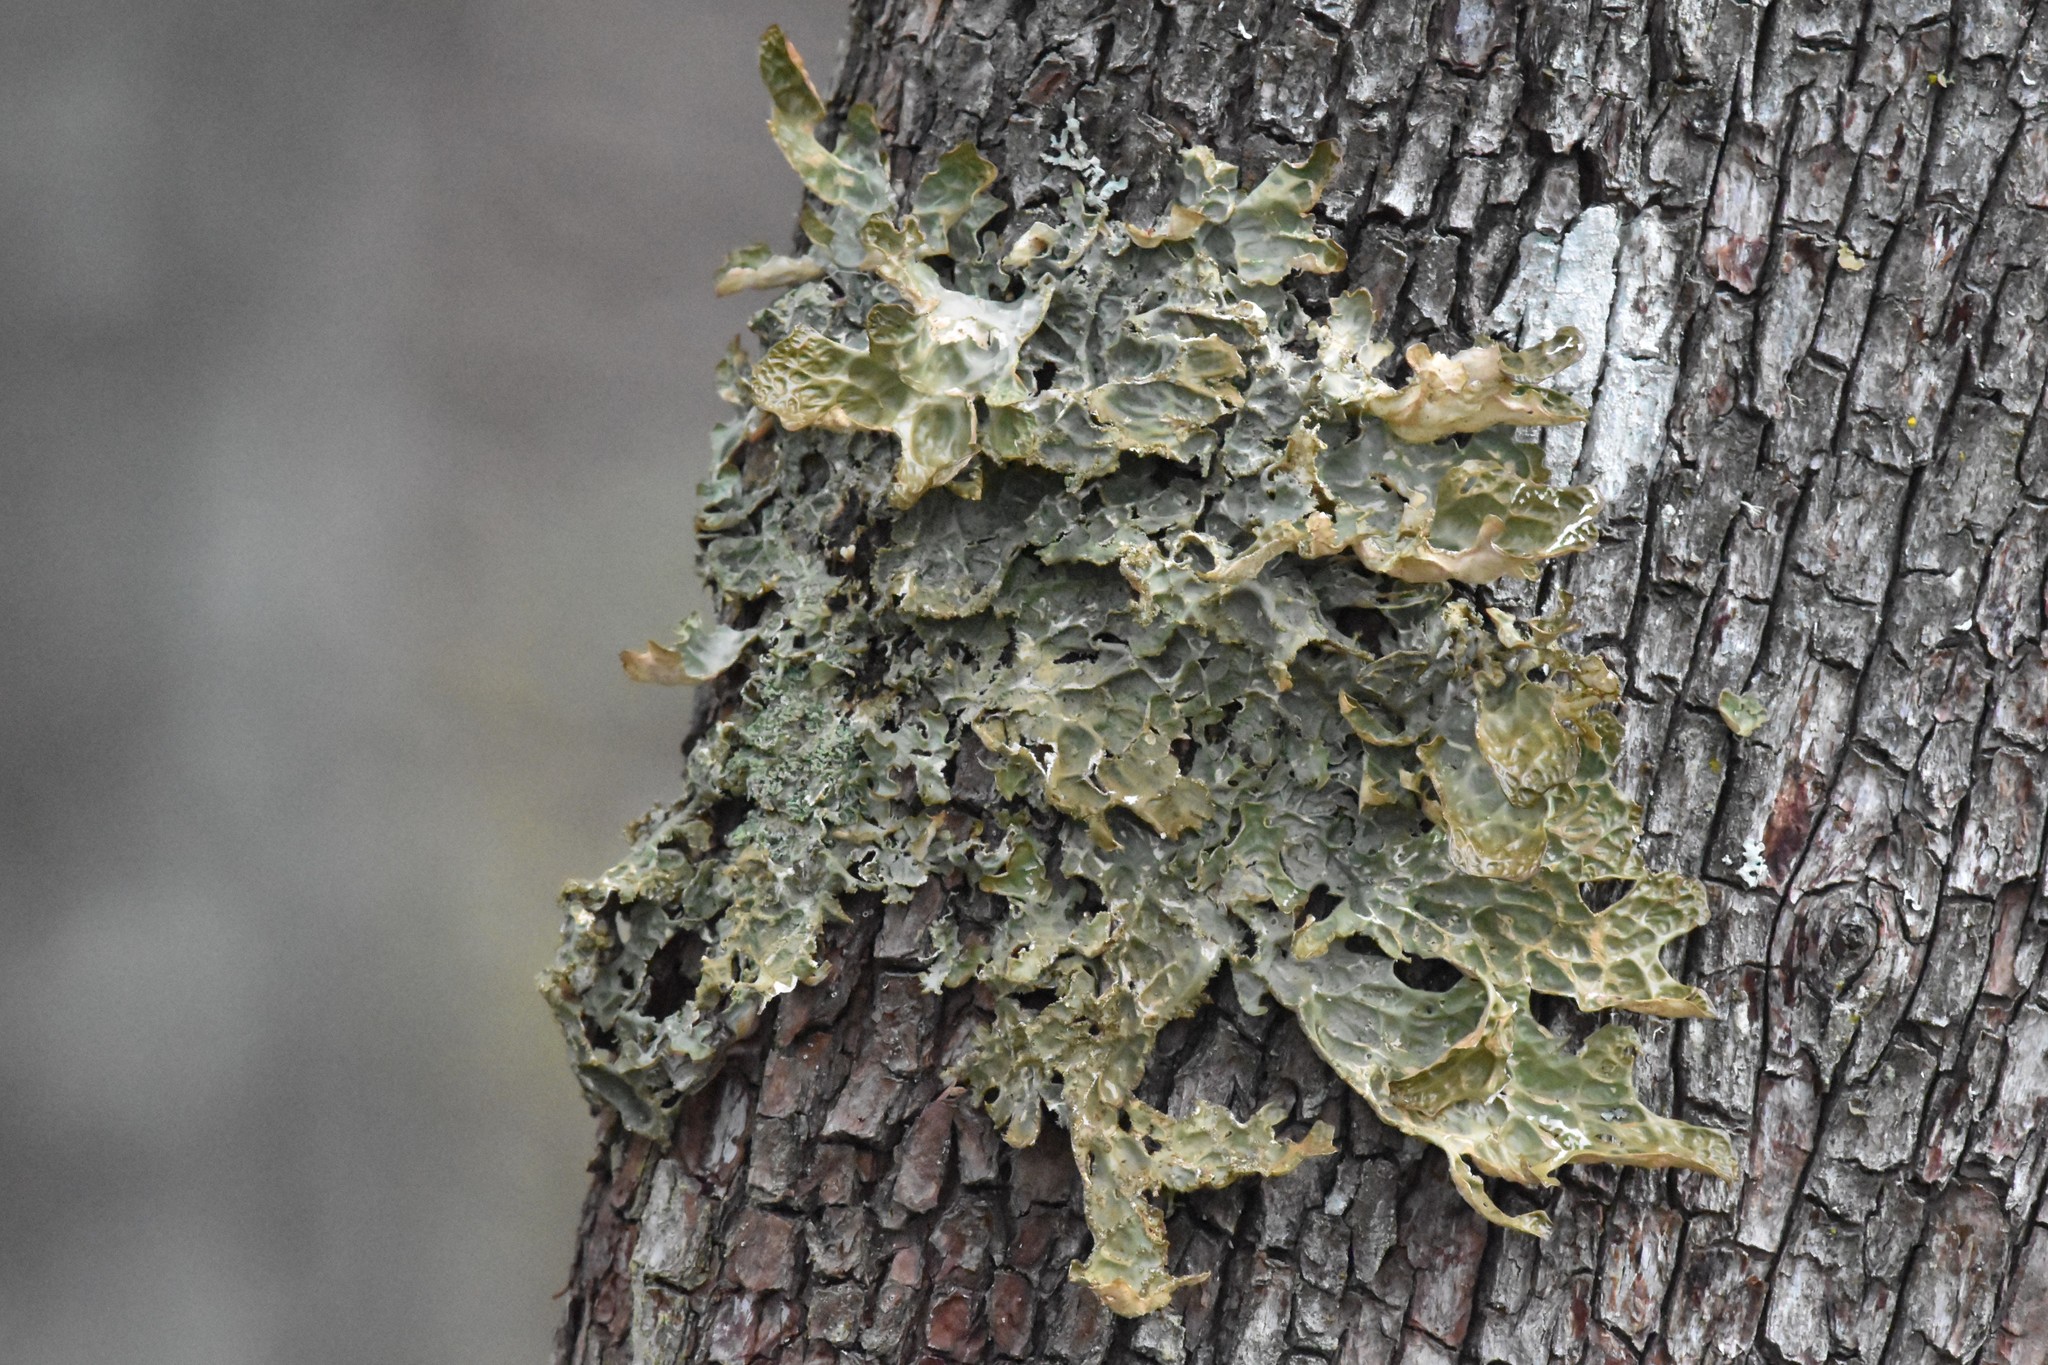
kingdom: Fungi
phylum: Ascomycota
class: Lecanoromycetes
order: Peltigerales
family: Lobariaceae
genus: Lobaria
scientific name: Lobaria pulmonaria
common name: Lungwort
